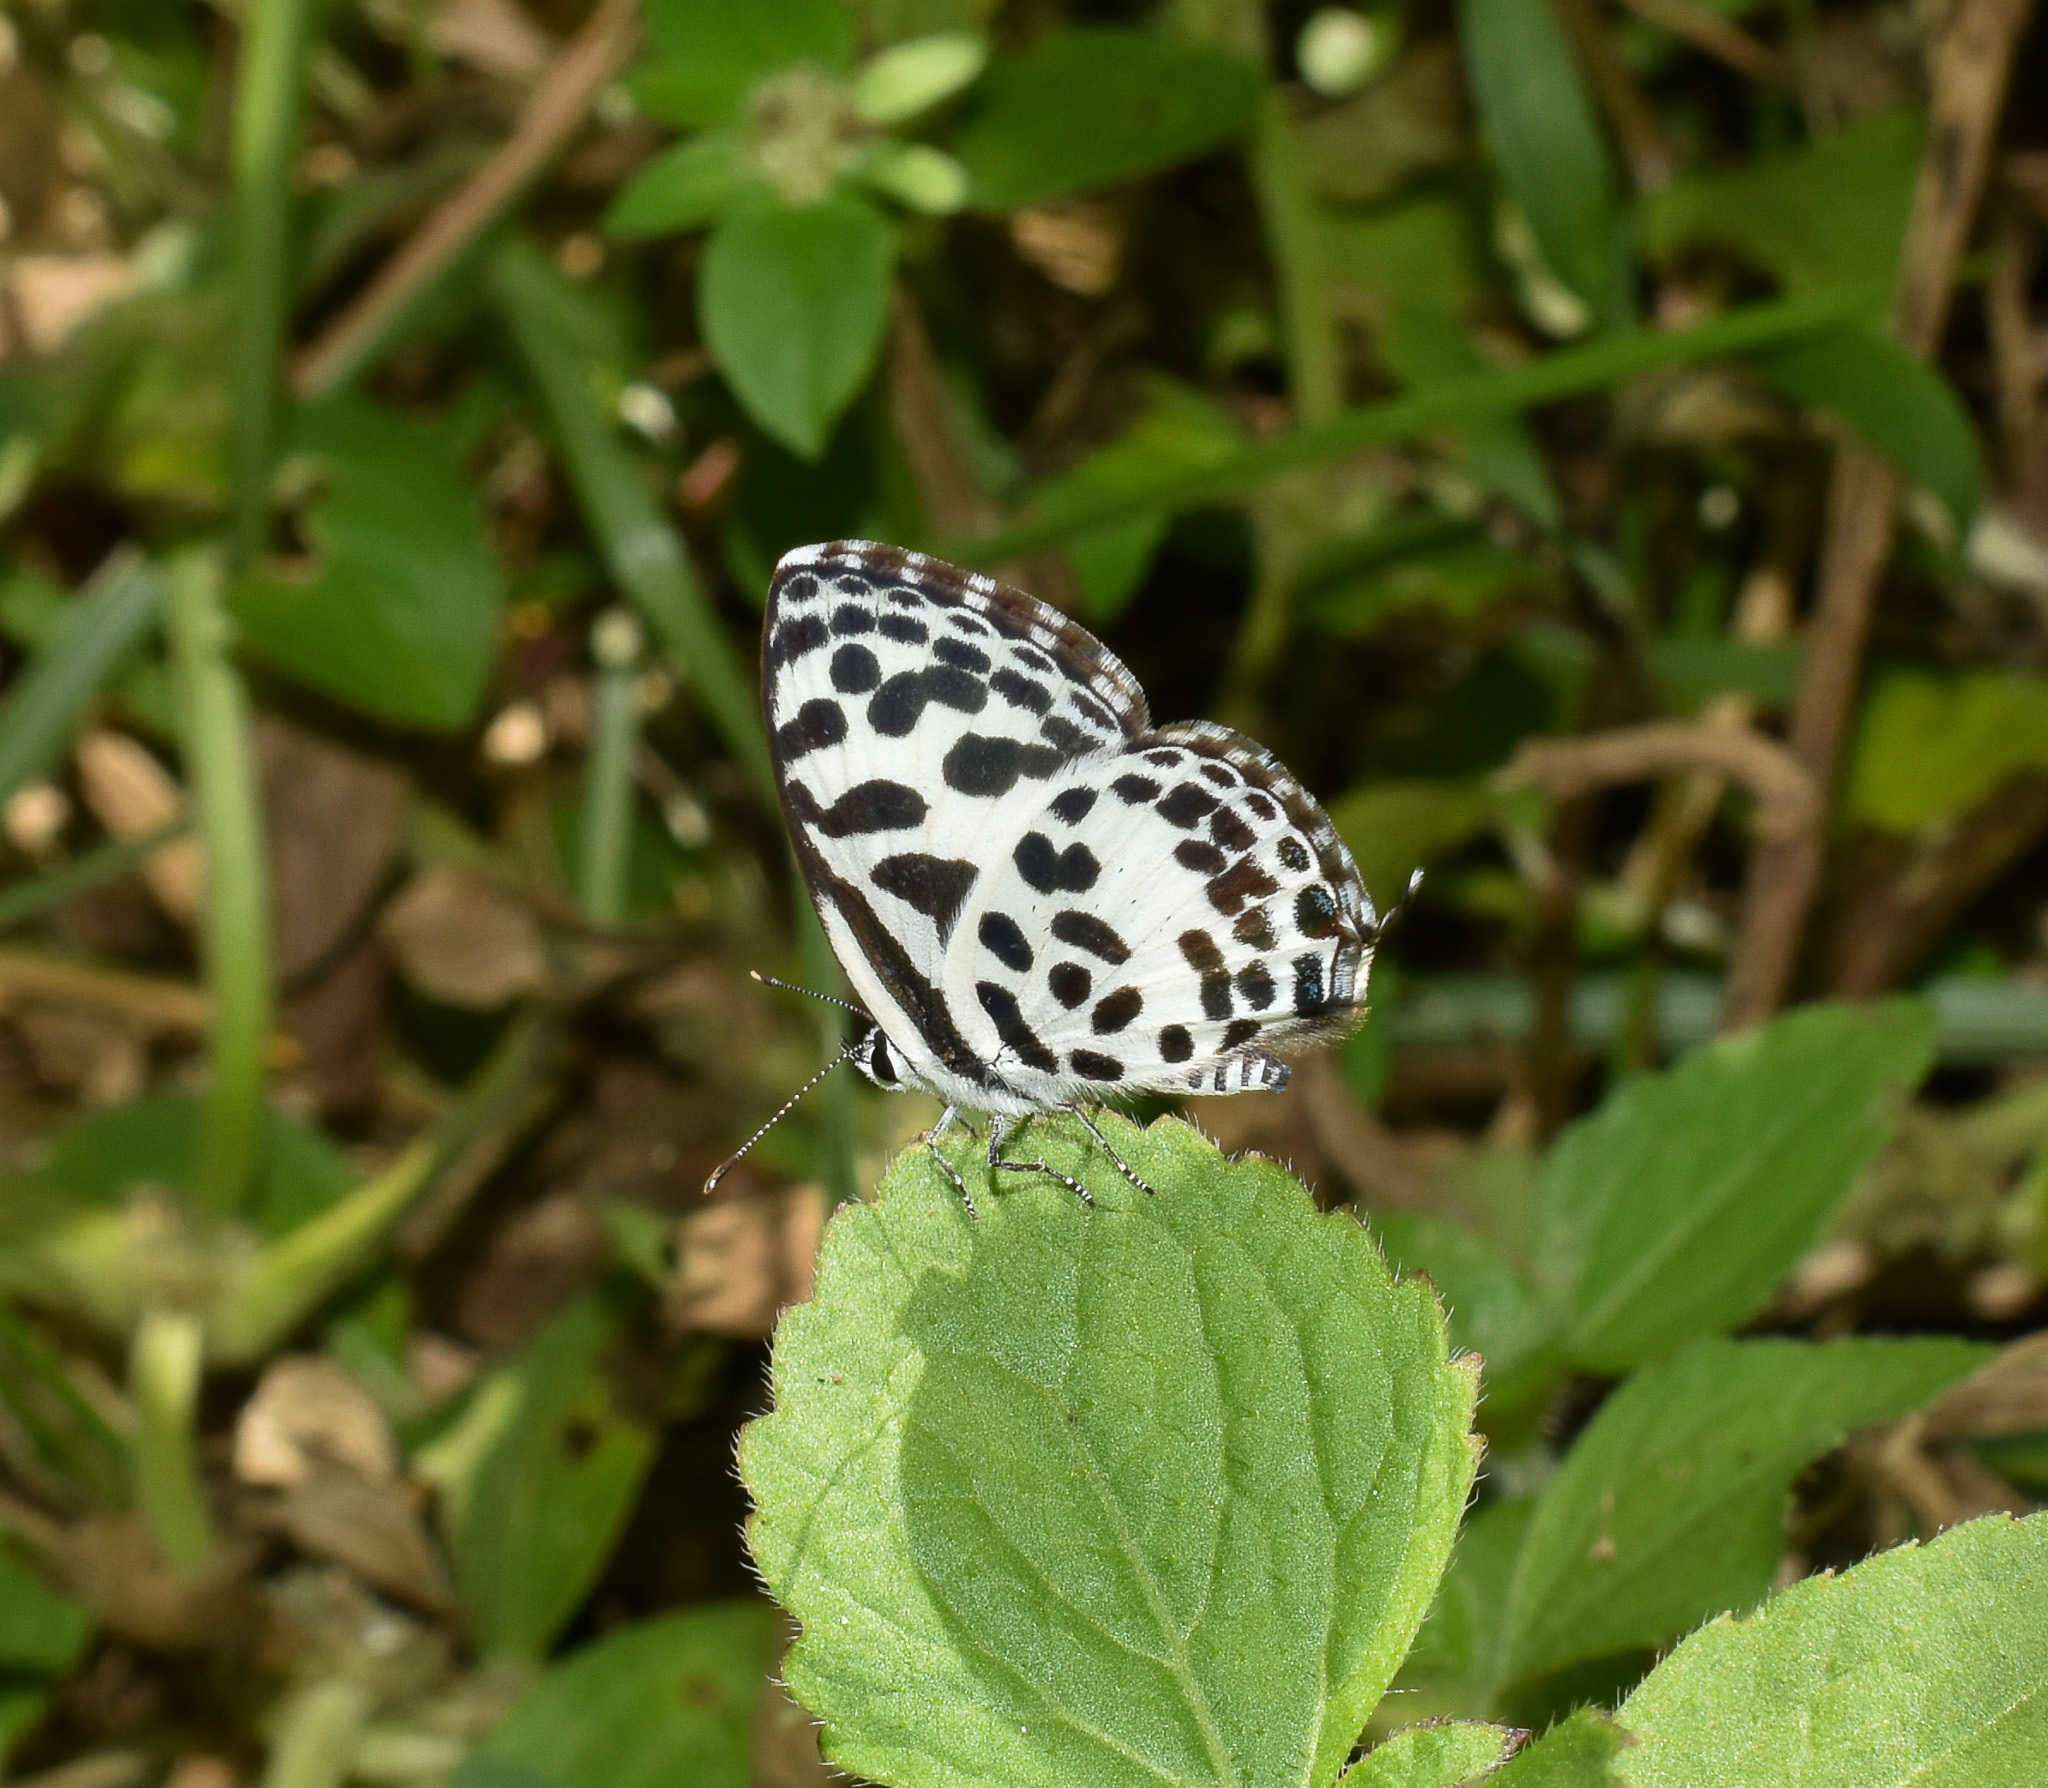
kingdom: Animalia
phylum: Arthropoda
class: Insecta
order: Lepidoptera
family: Lycaenidae
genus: Castalius
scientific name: Castalius rosimon
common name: Common pierrot
